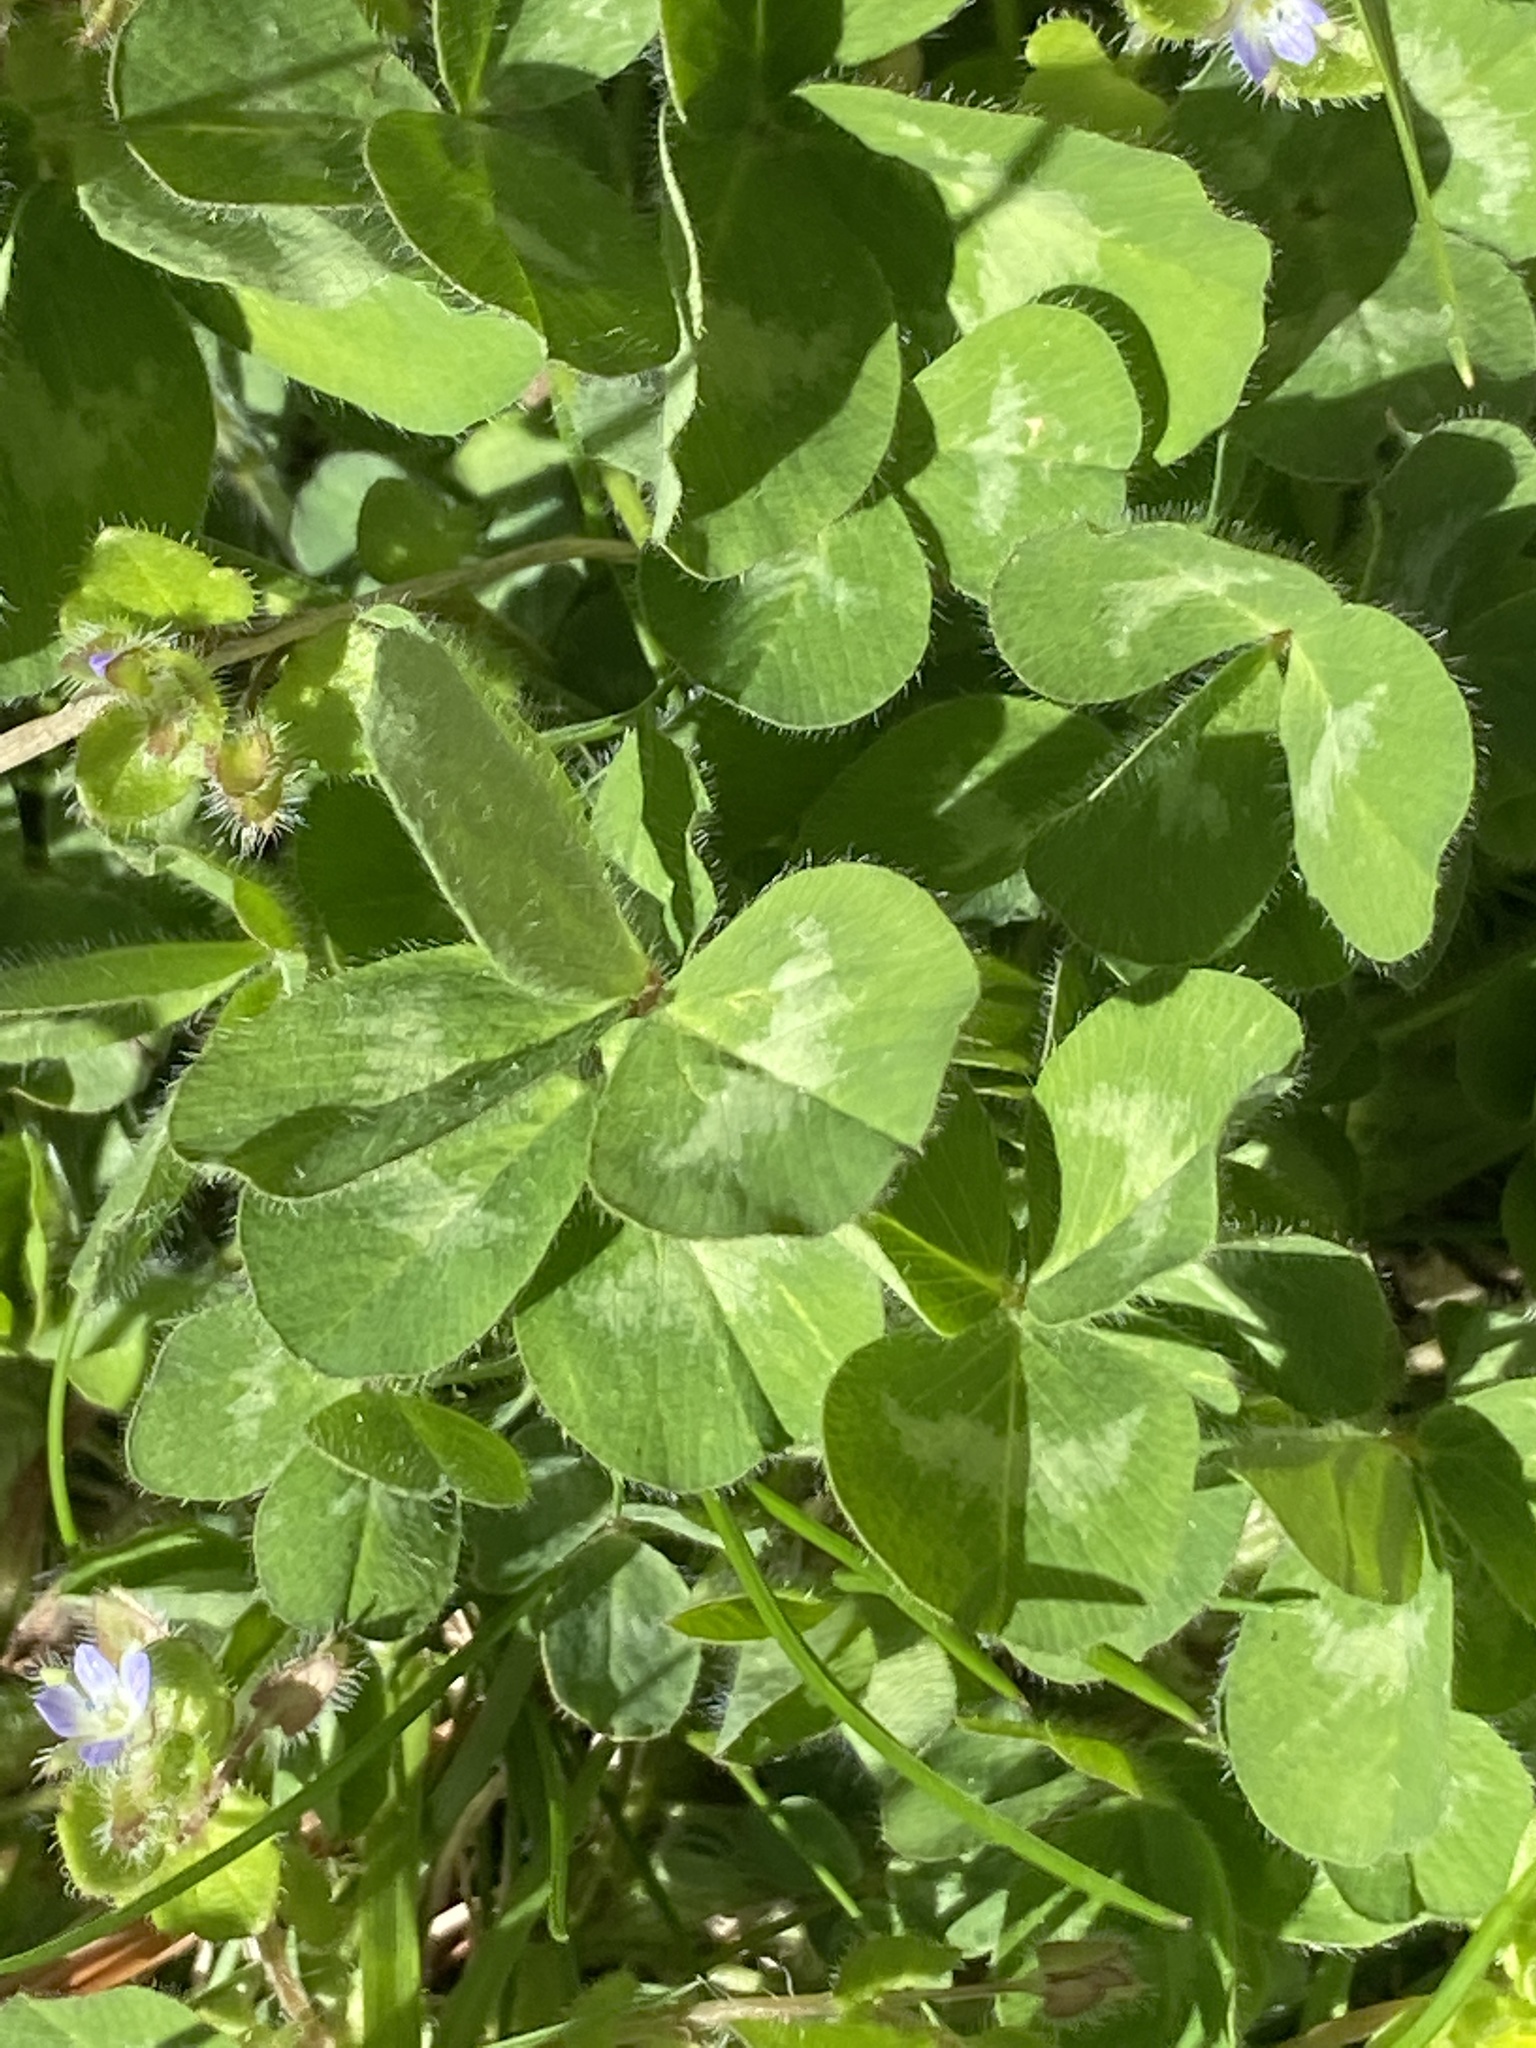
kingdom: Plantae
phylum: Tracheophyta
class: Magnoliopsida
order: Fabales
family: Fabaceae
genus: Trifolium
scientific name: Trifolium pratense
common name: Red clover
